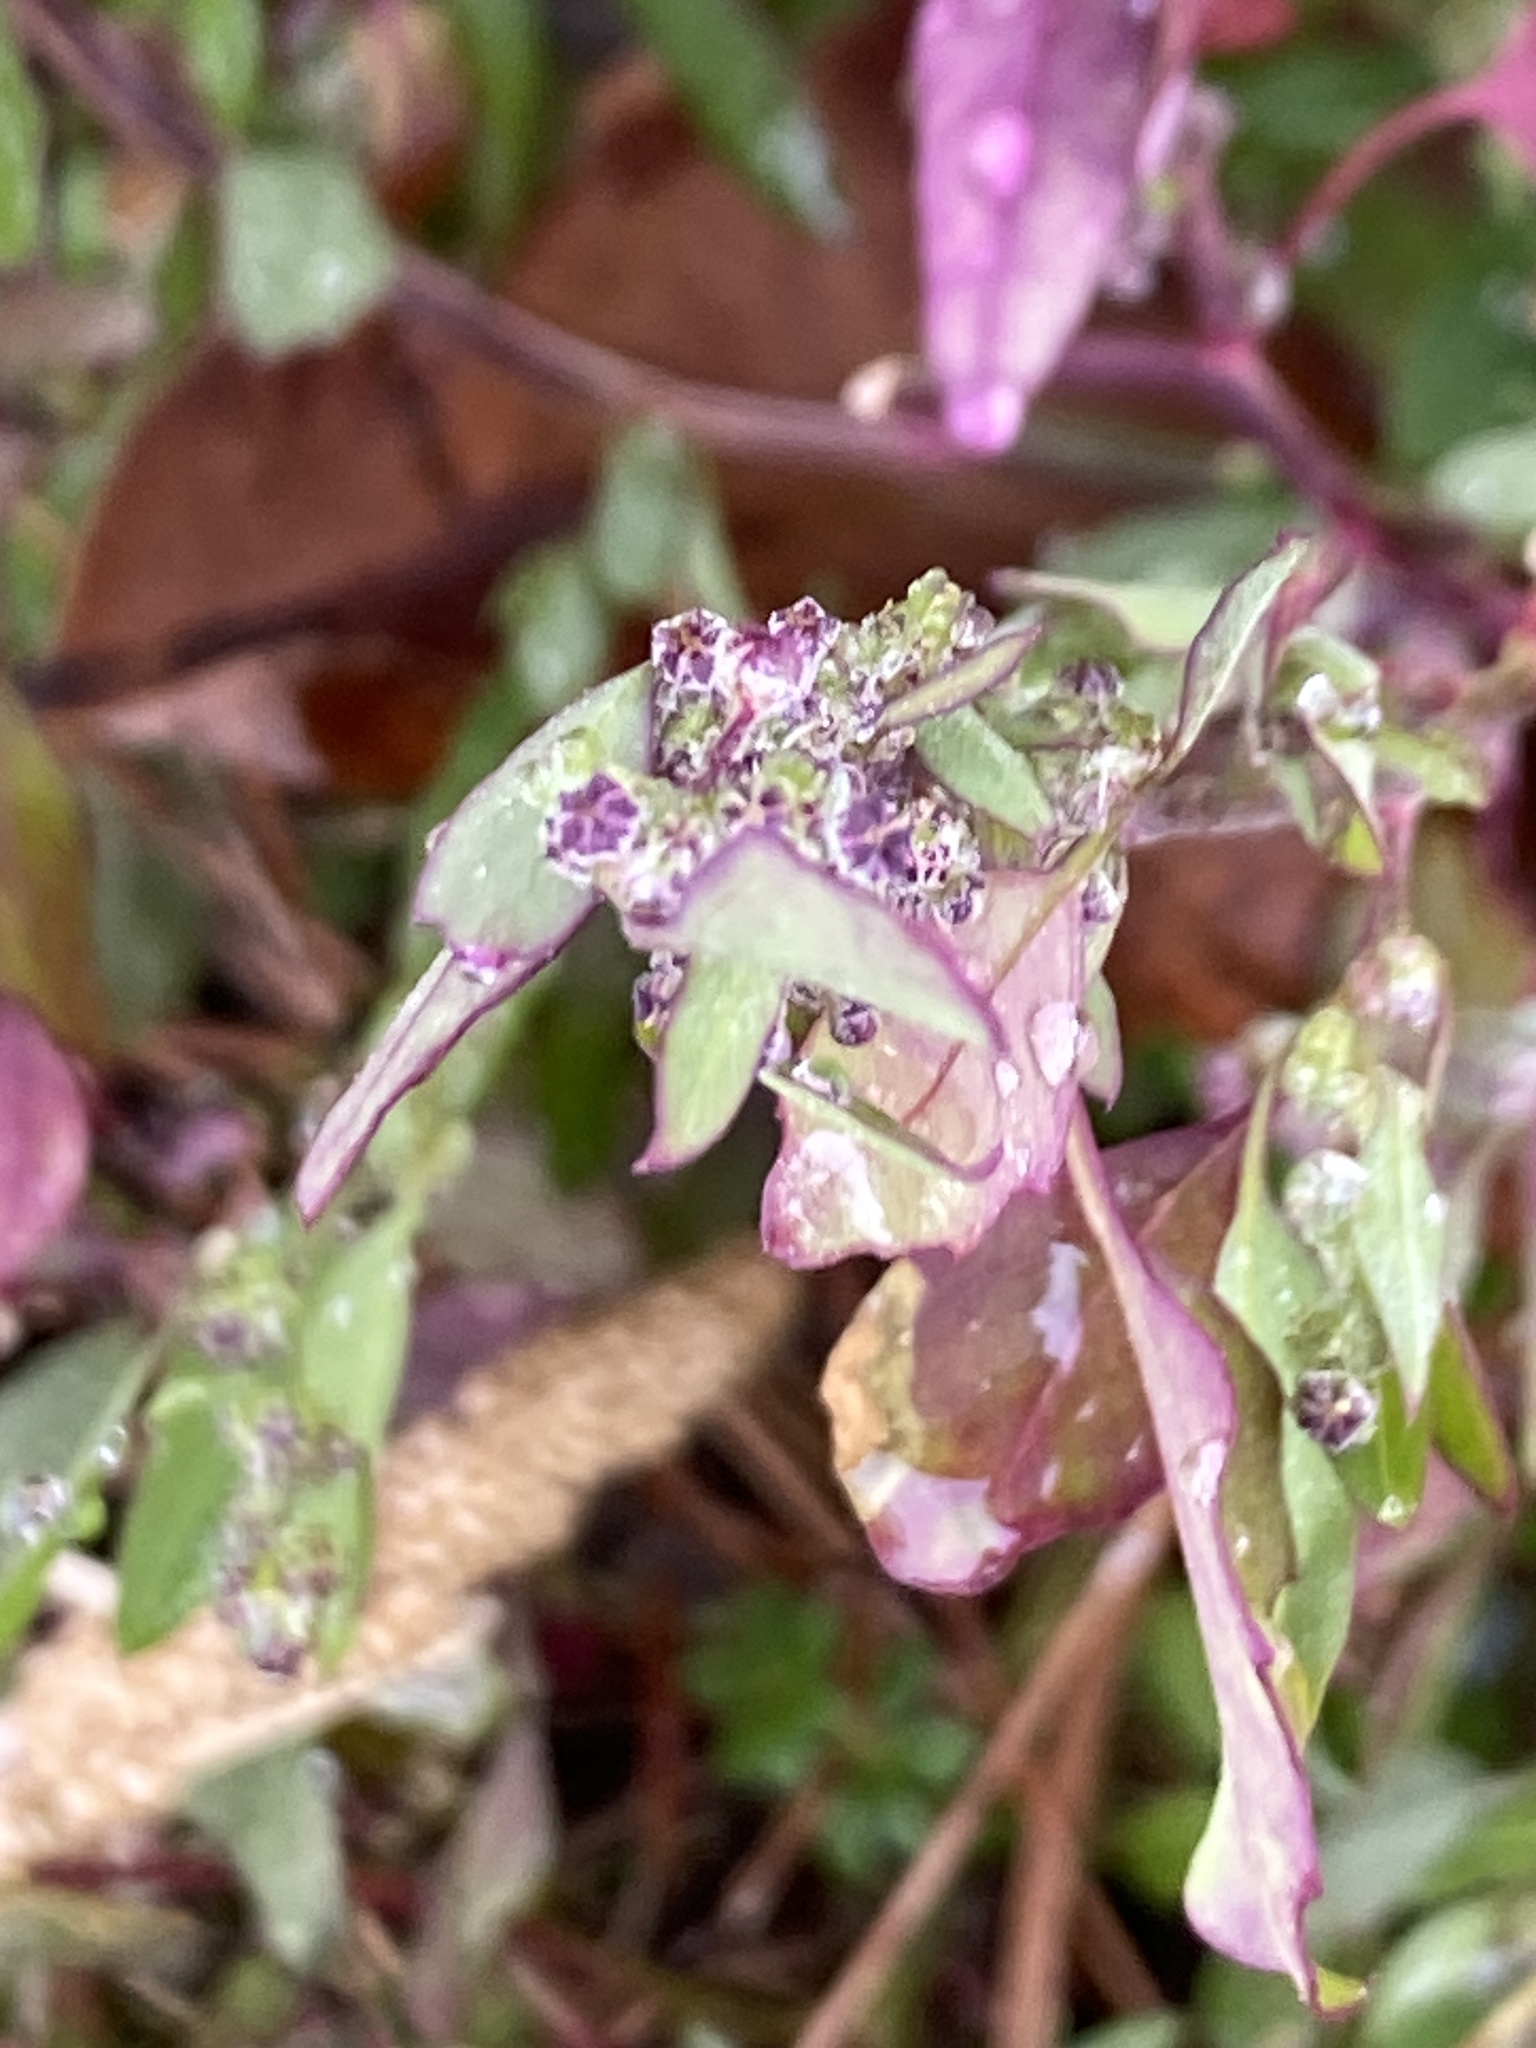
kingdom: Plantae
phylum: Tracheophyta
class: Magnoliopsida
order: Caryophyllales
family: Amaranthaceae
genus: Chenopodium
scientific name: Chenopodium album
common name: Fat-hen
